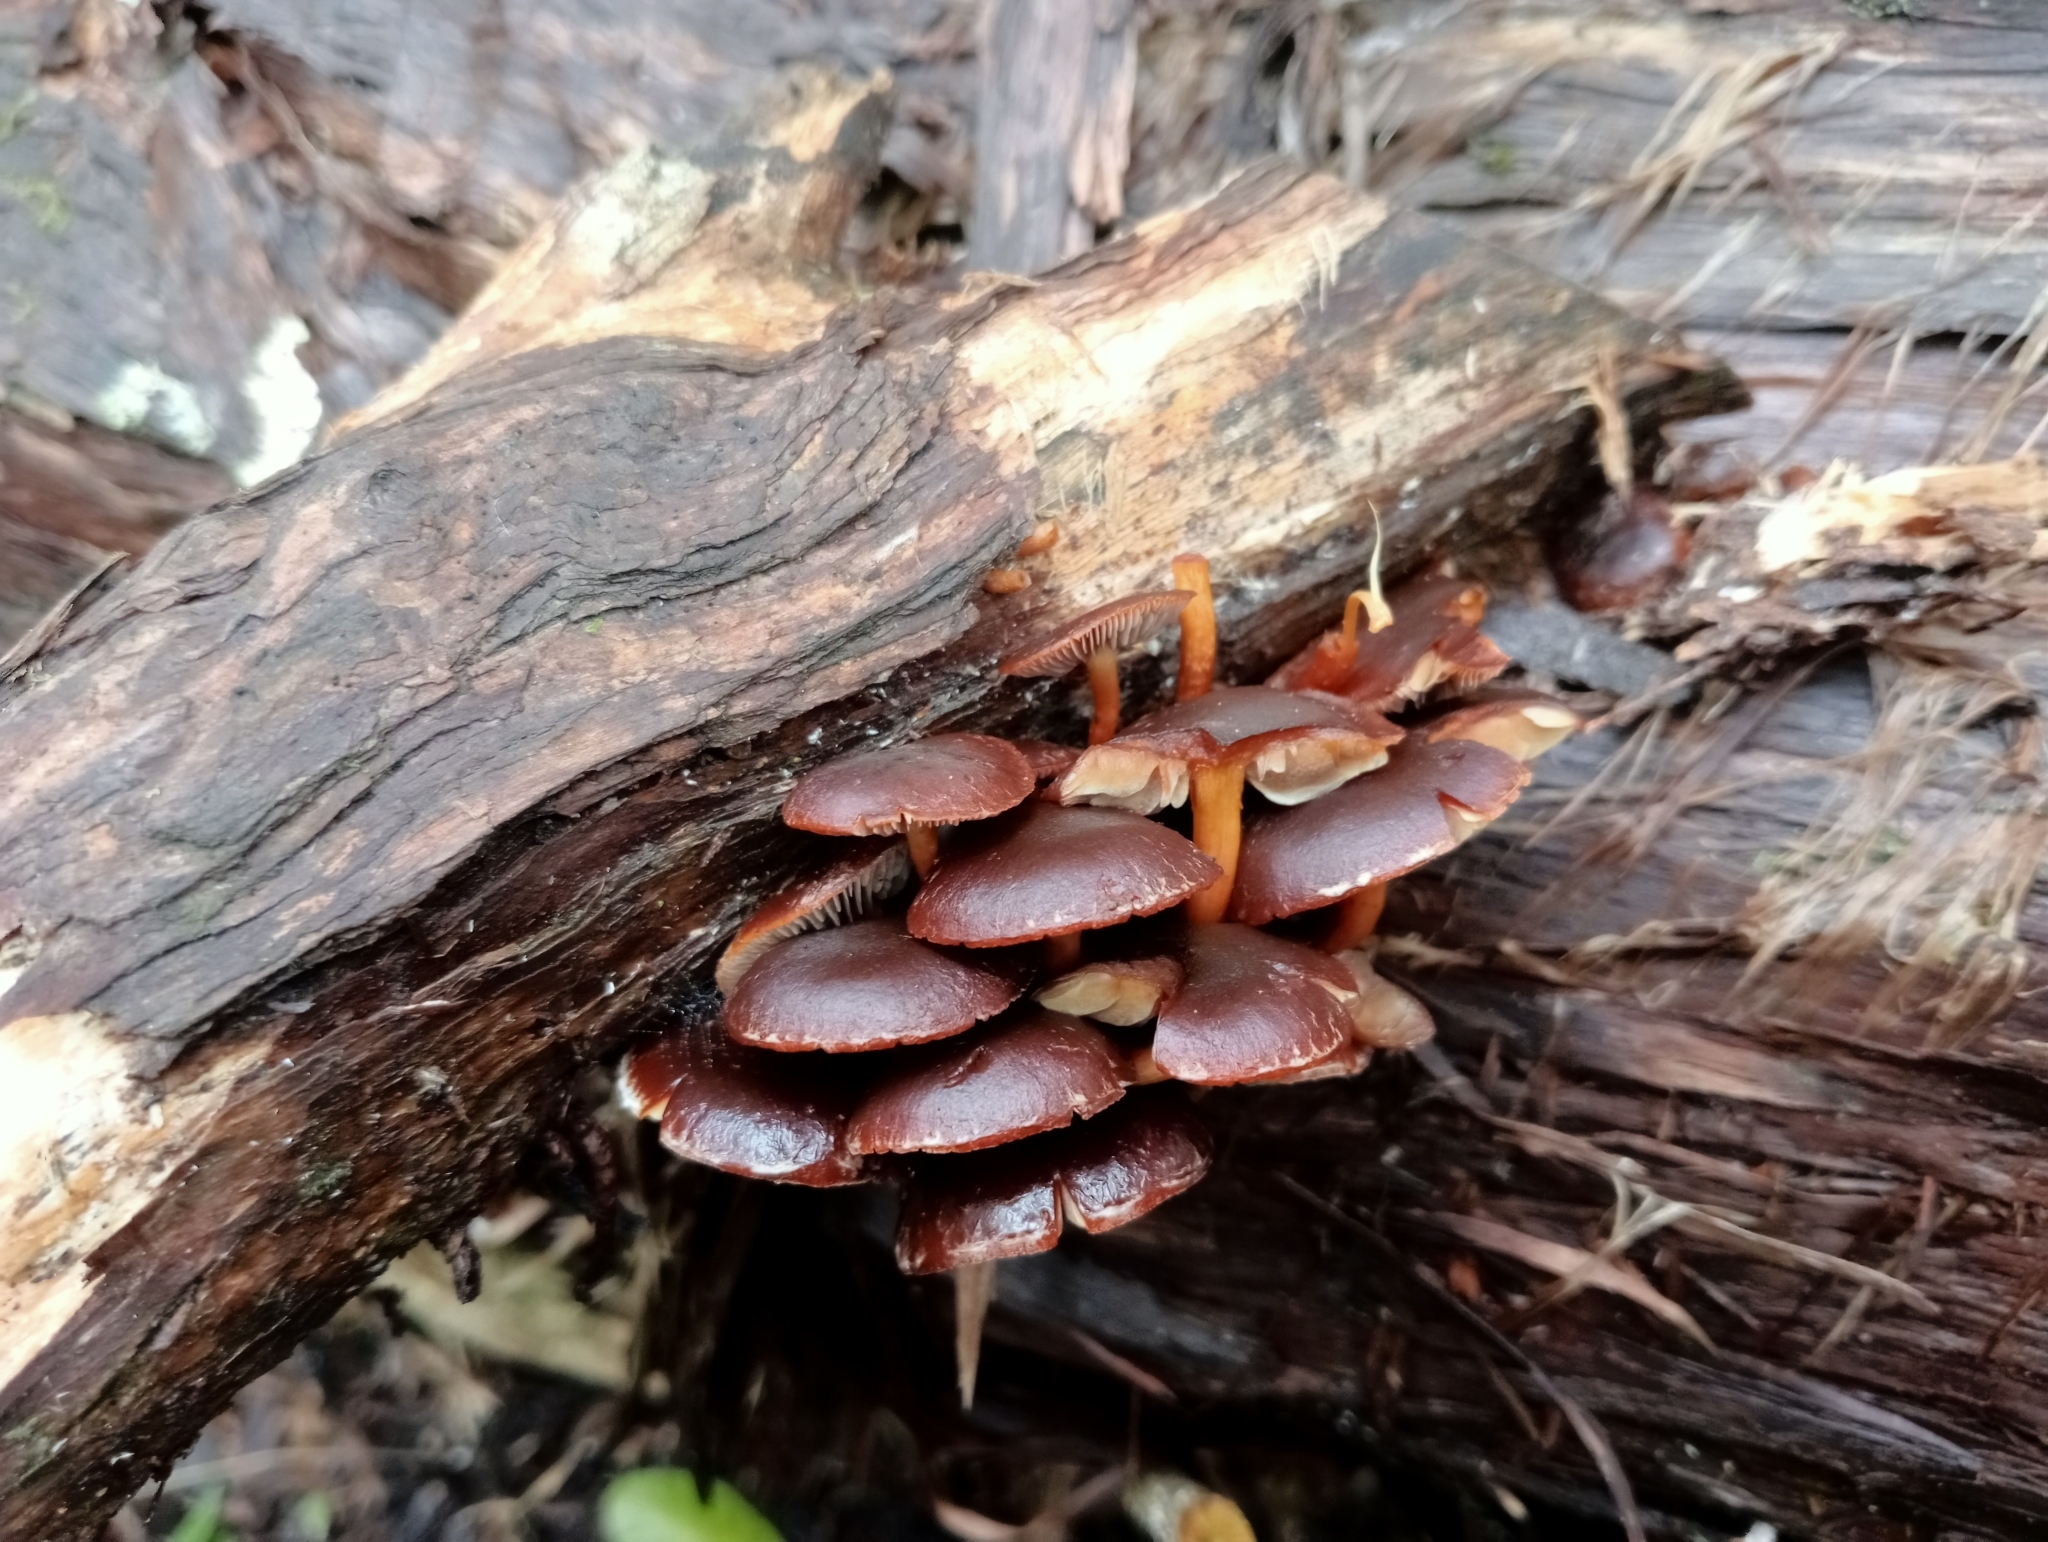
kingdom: Fungi
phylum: Basidiomycota
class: Agaricomycetes
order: Agaricales
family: Strophariaceae
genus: Hypholoma
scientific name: Hypholoma brunneum
